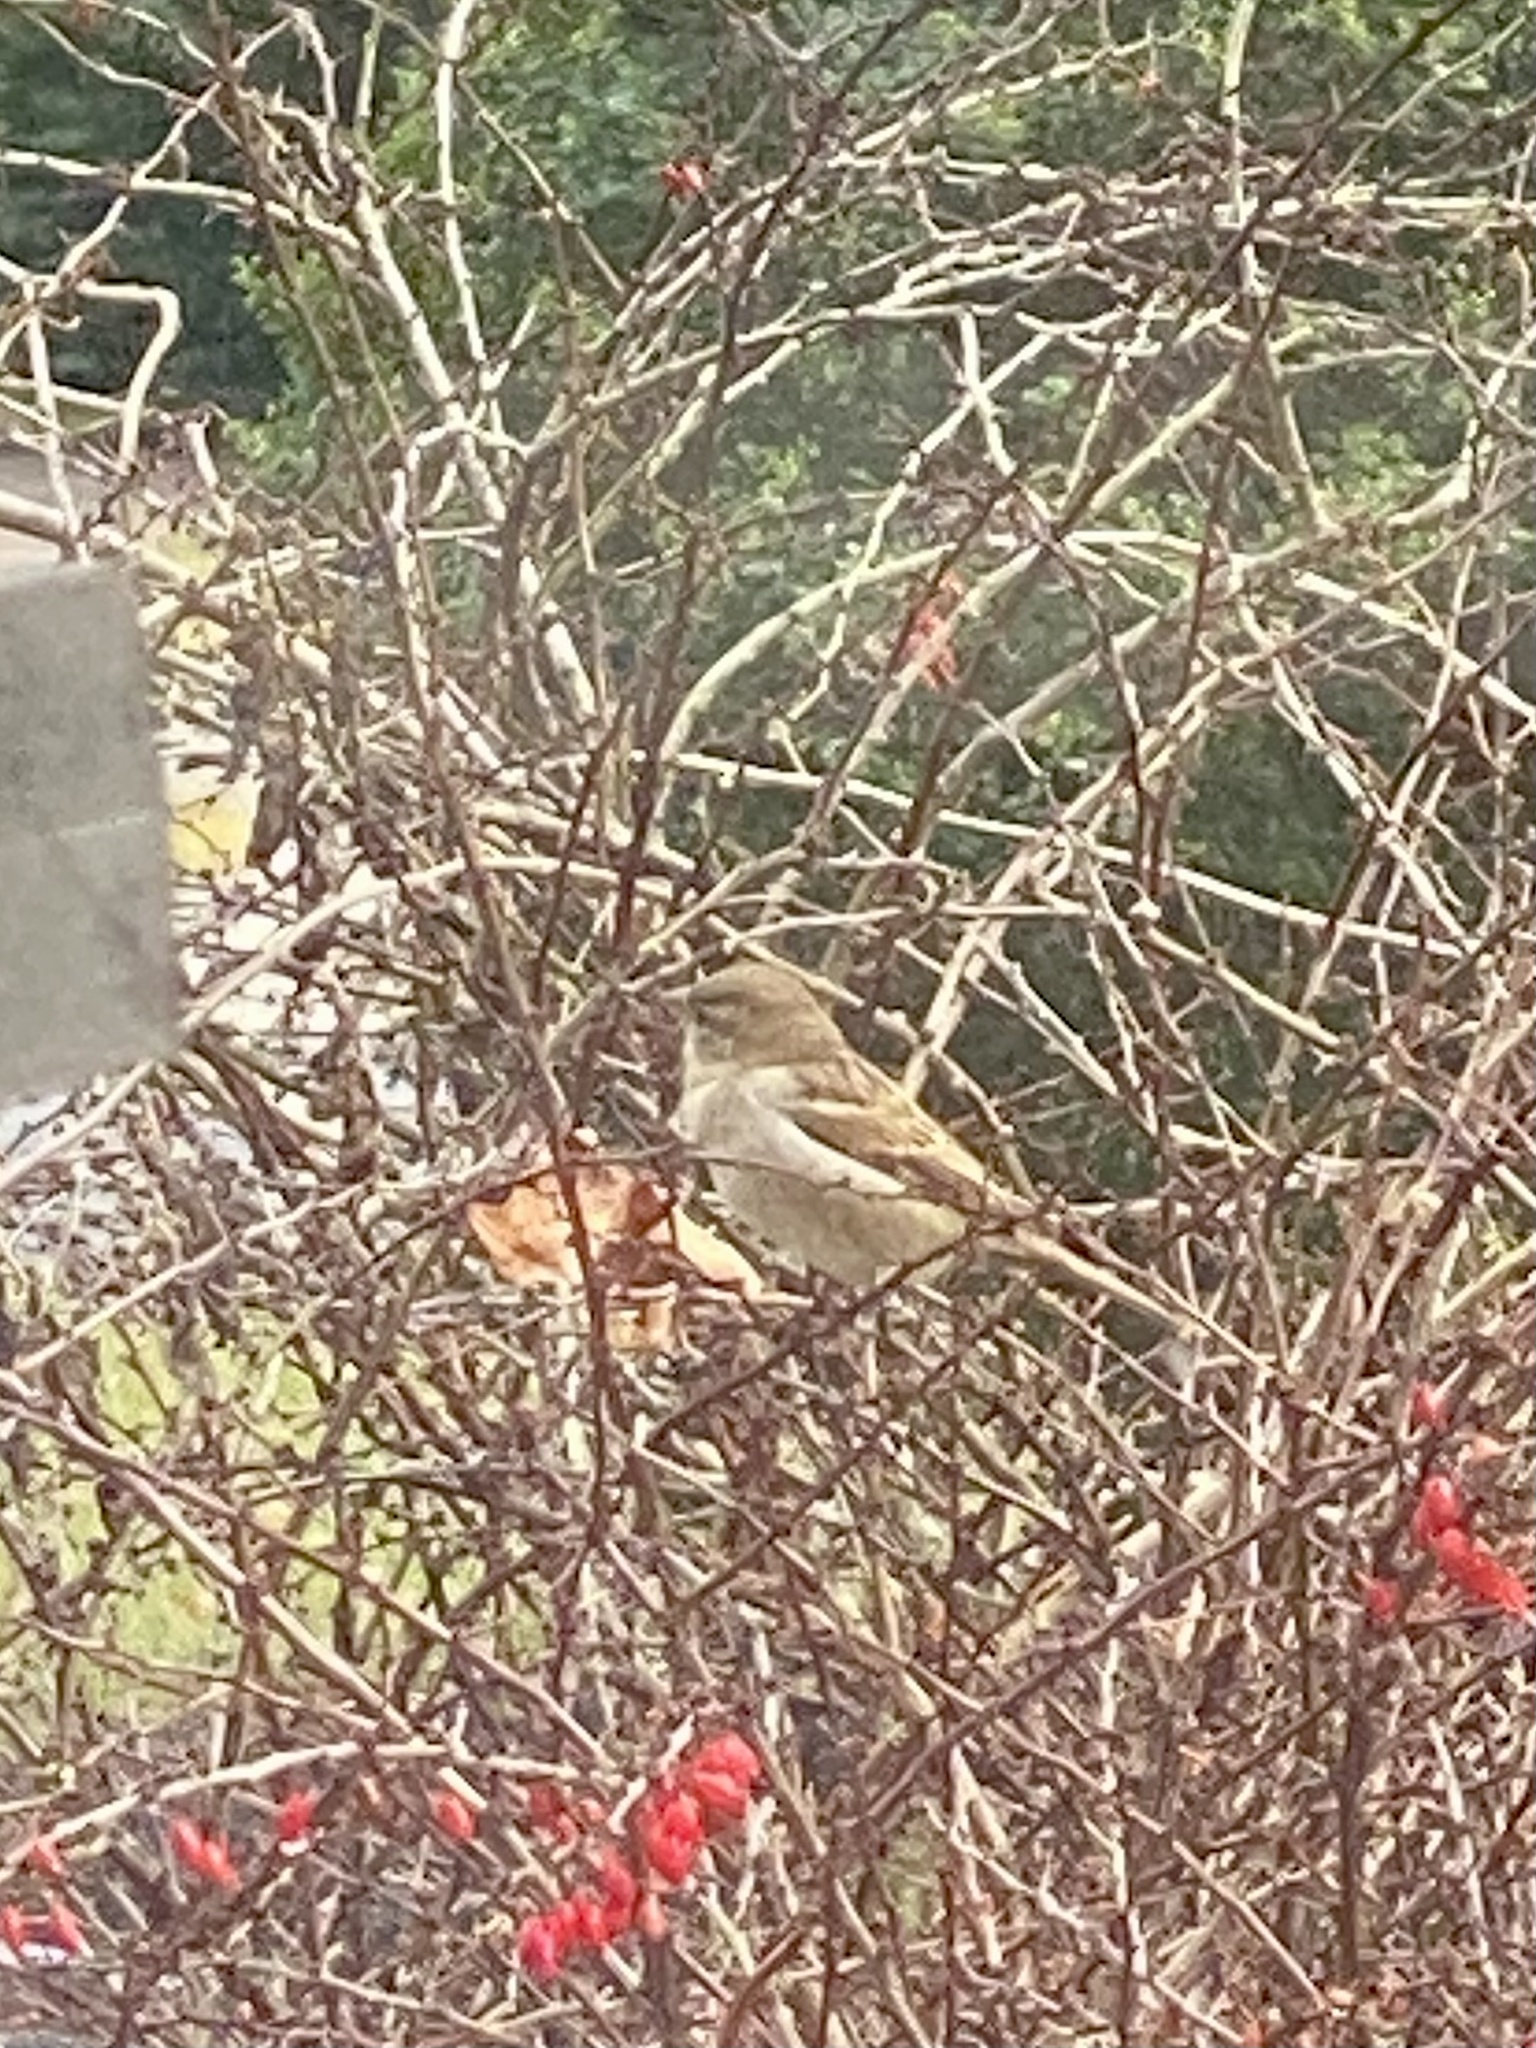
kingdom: Animalia
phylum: Chordata
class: Aves
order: Passeriformes
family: Passeridae
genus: Passer
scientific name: Passer domesticus
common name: House sparrow
